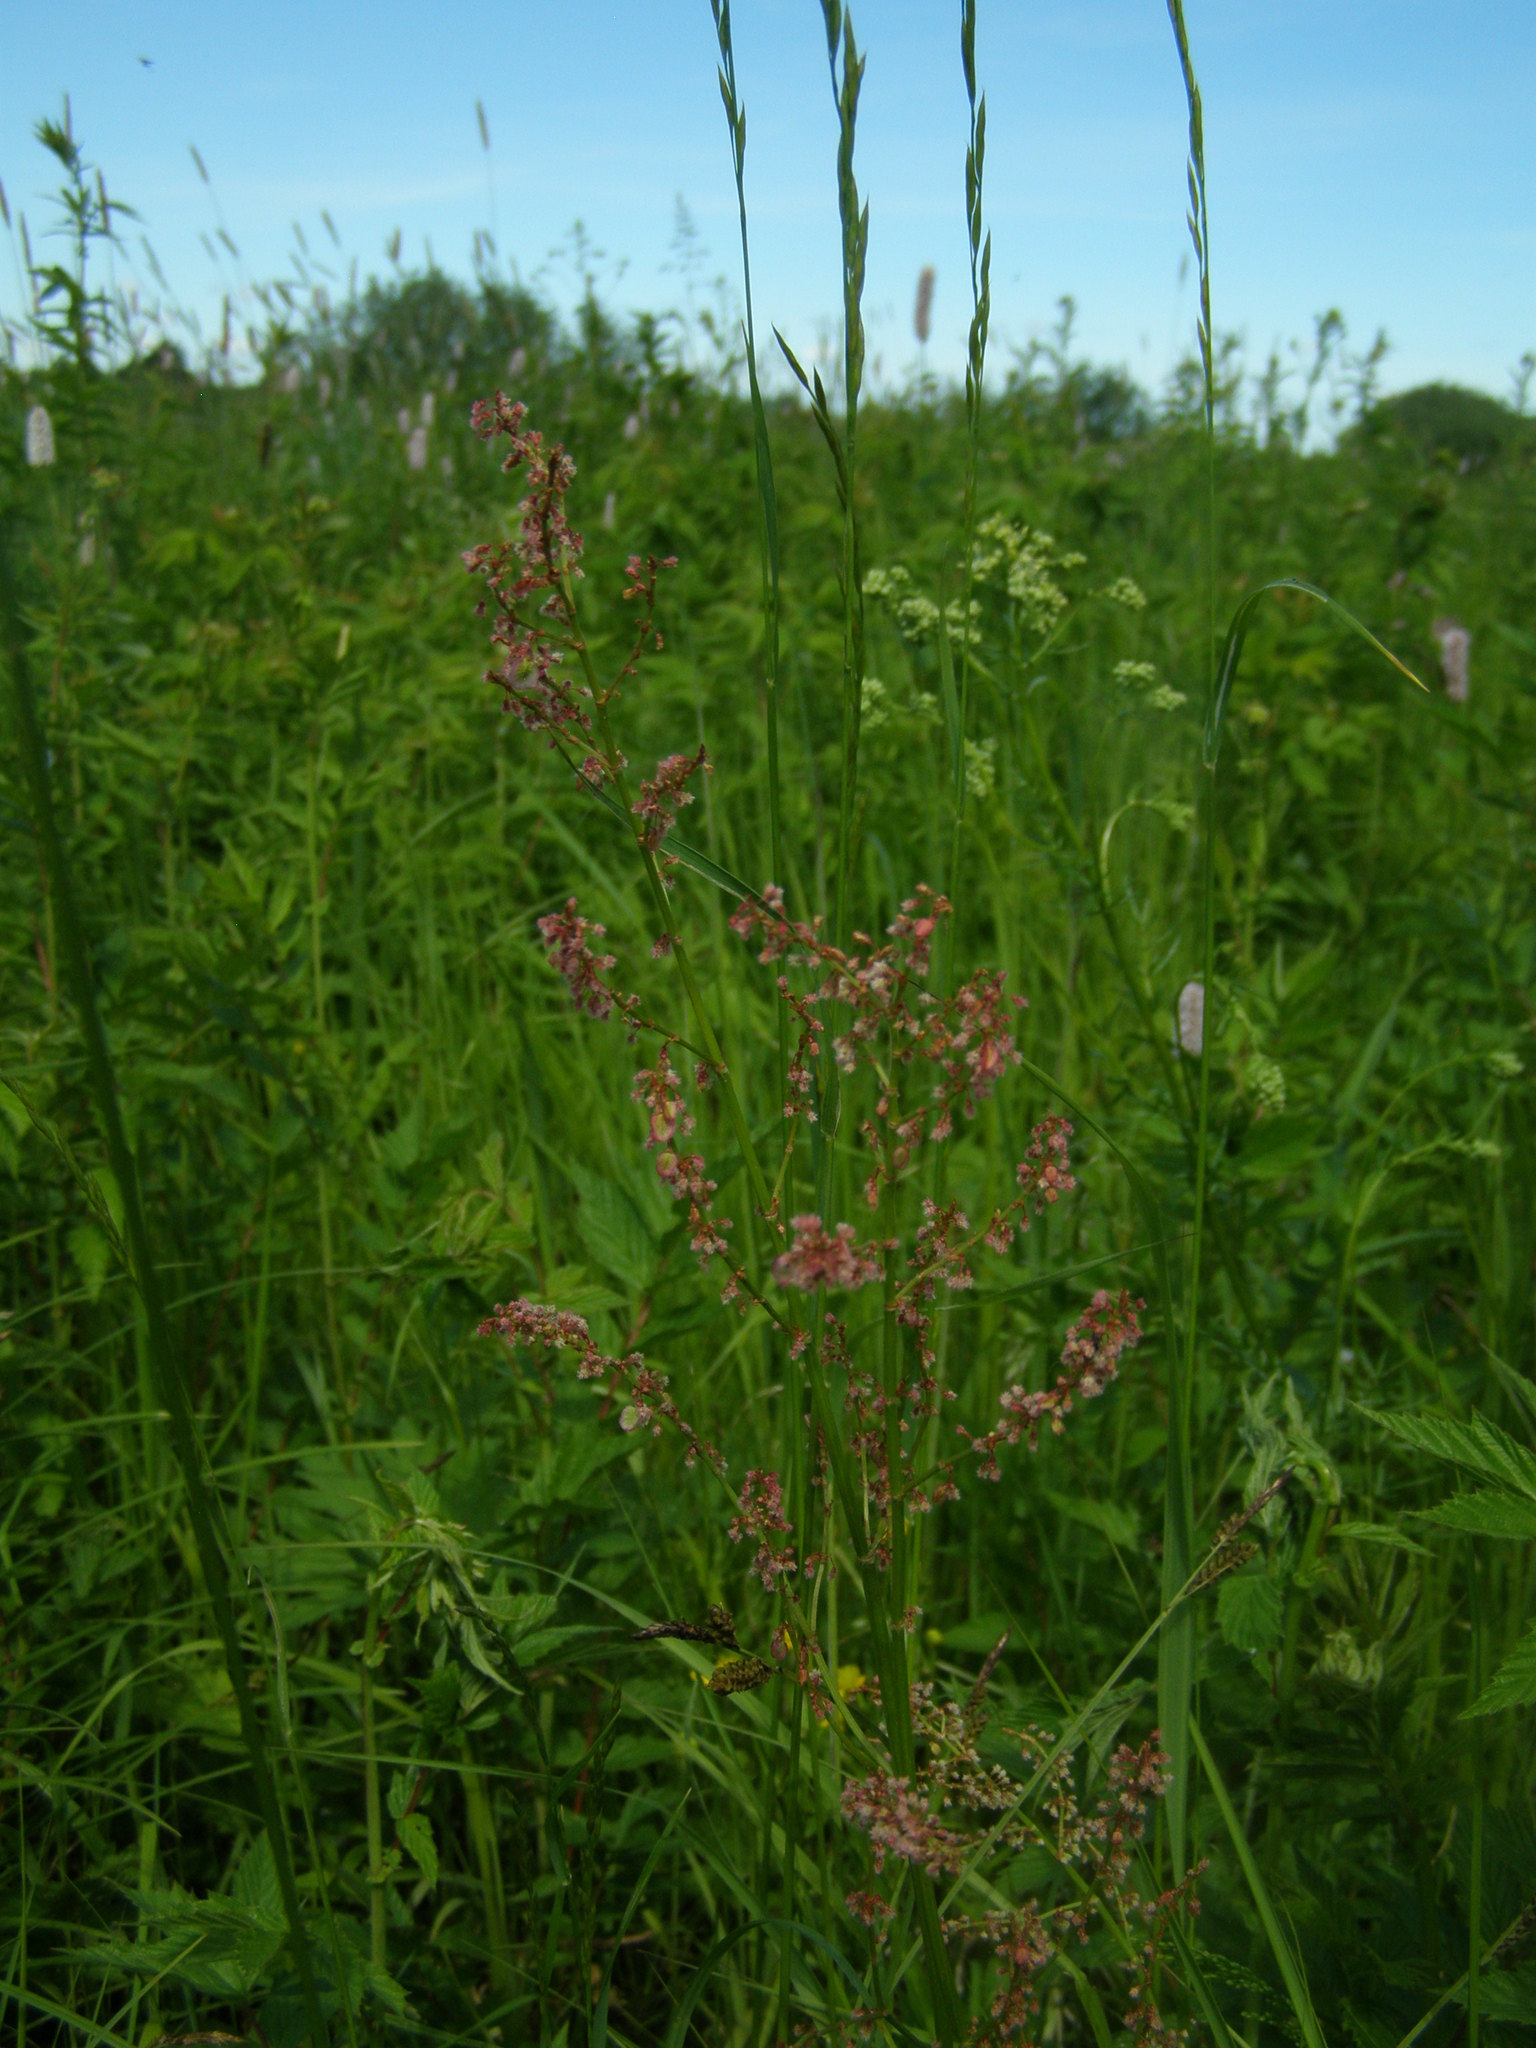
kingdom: Plantae
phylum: Tracheophyta
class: Magnoliopsida
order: Caryophyllales
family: Polygonaceae
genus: Rumex
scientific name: Rumex acetosa
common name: Garden sorrel
